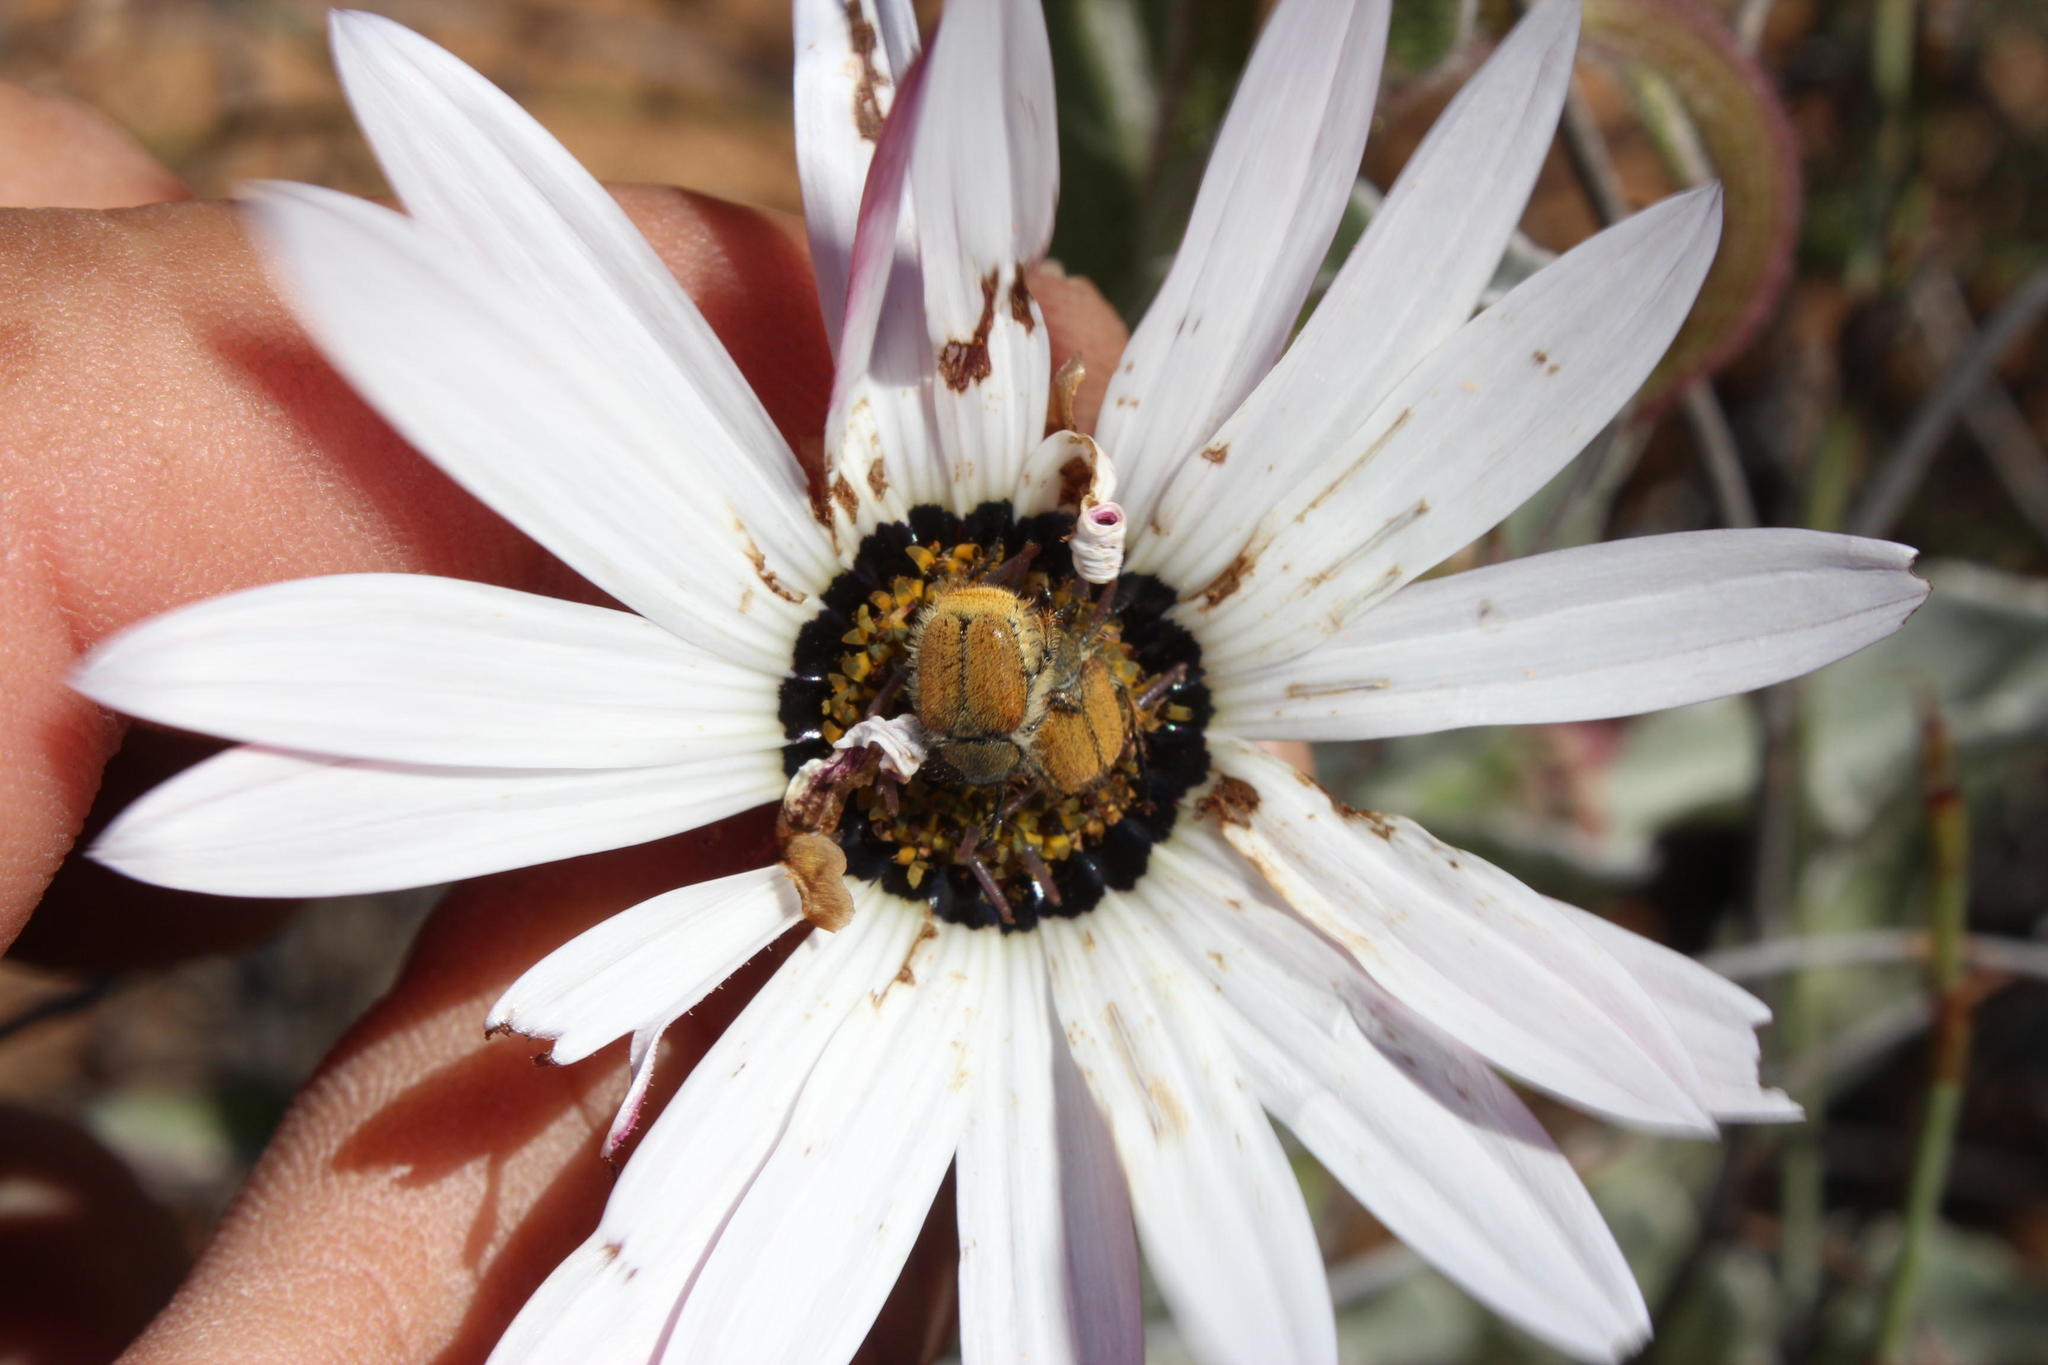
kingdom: Plantae
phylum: Tracheophyta
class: Magnoliopsida
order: Asterales
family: Asteraceae
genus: Arctotis
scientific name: Arctotis decurrens
